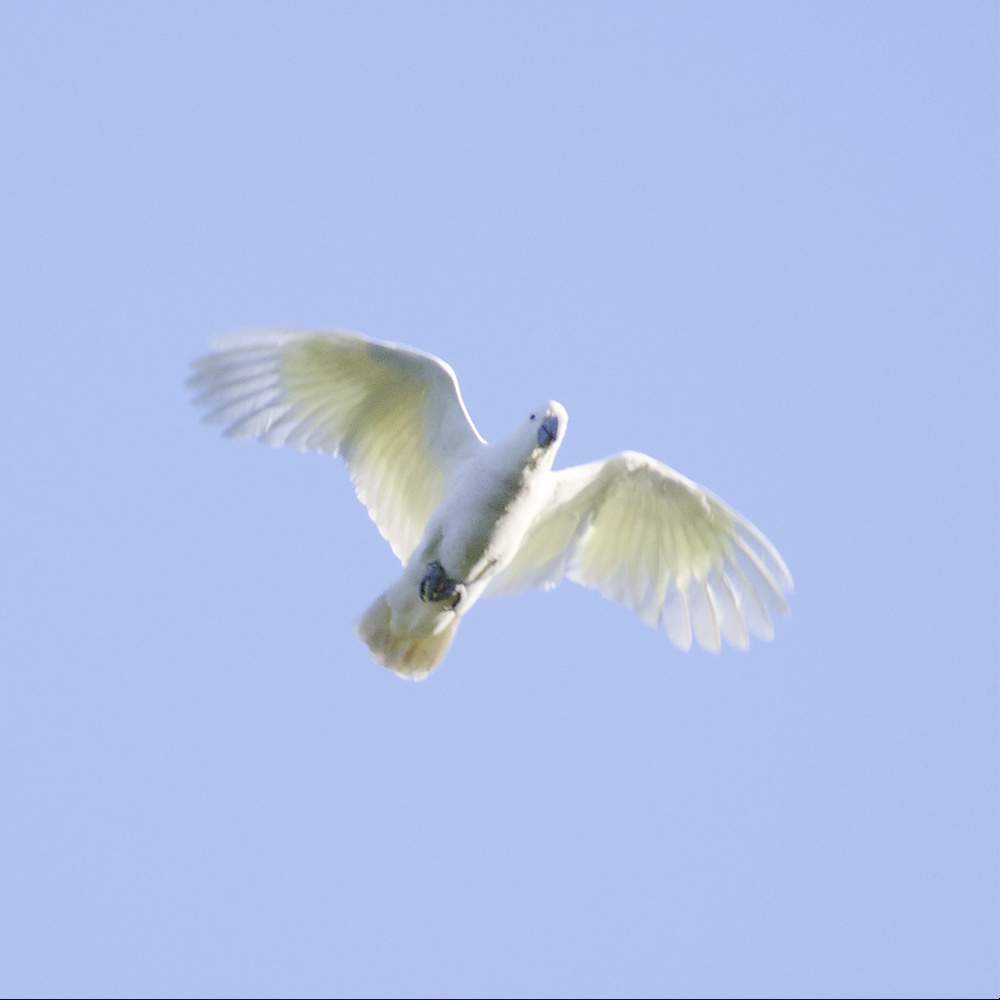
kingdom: Animalia
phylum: Chordata
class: Aves
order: Psittaciformes
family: Psittacidae
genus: Cacatua
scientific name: Cacatua galerita
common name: Sulphur-crested cockatoo
